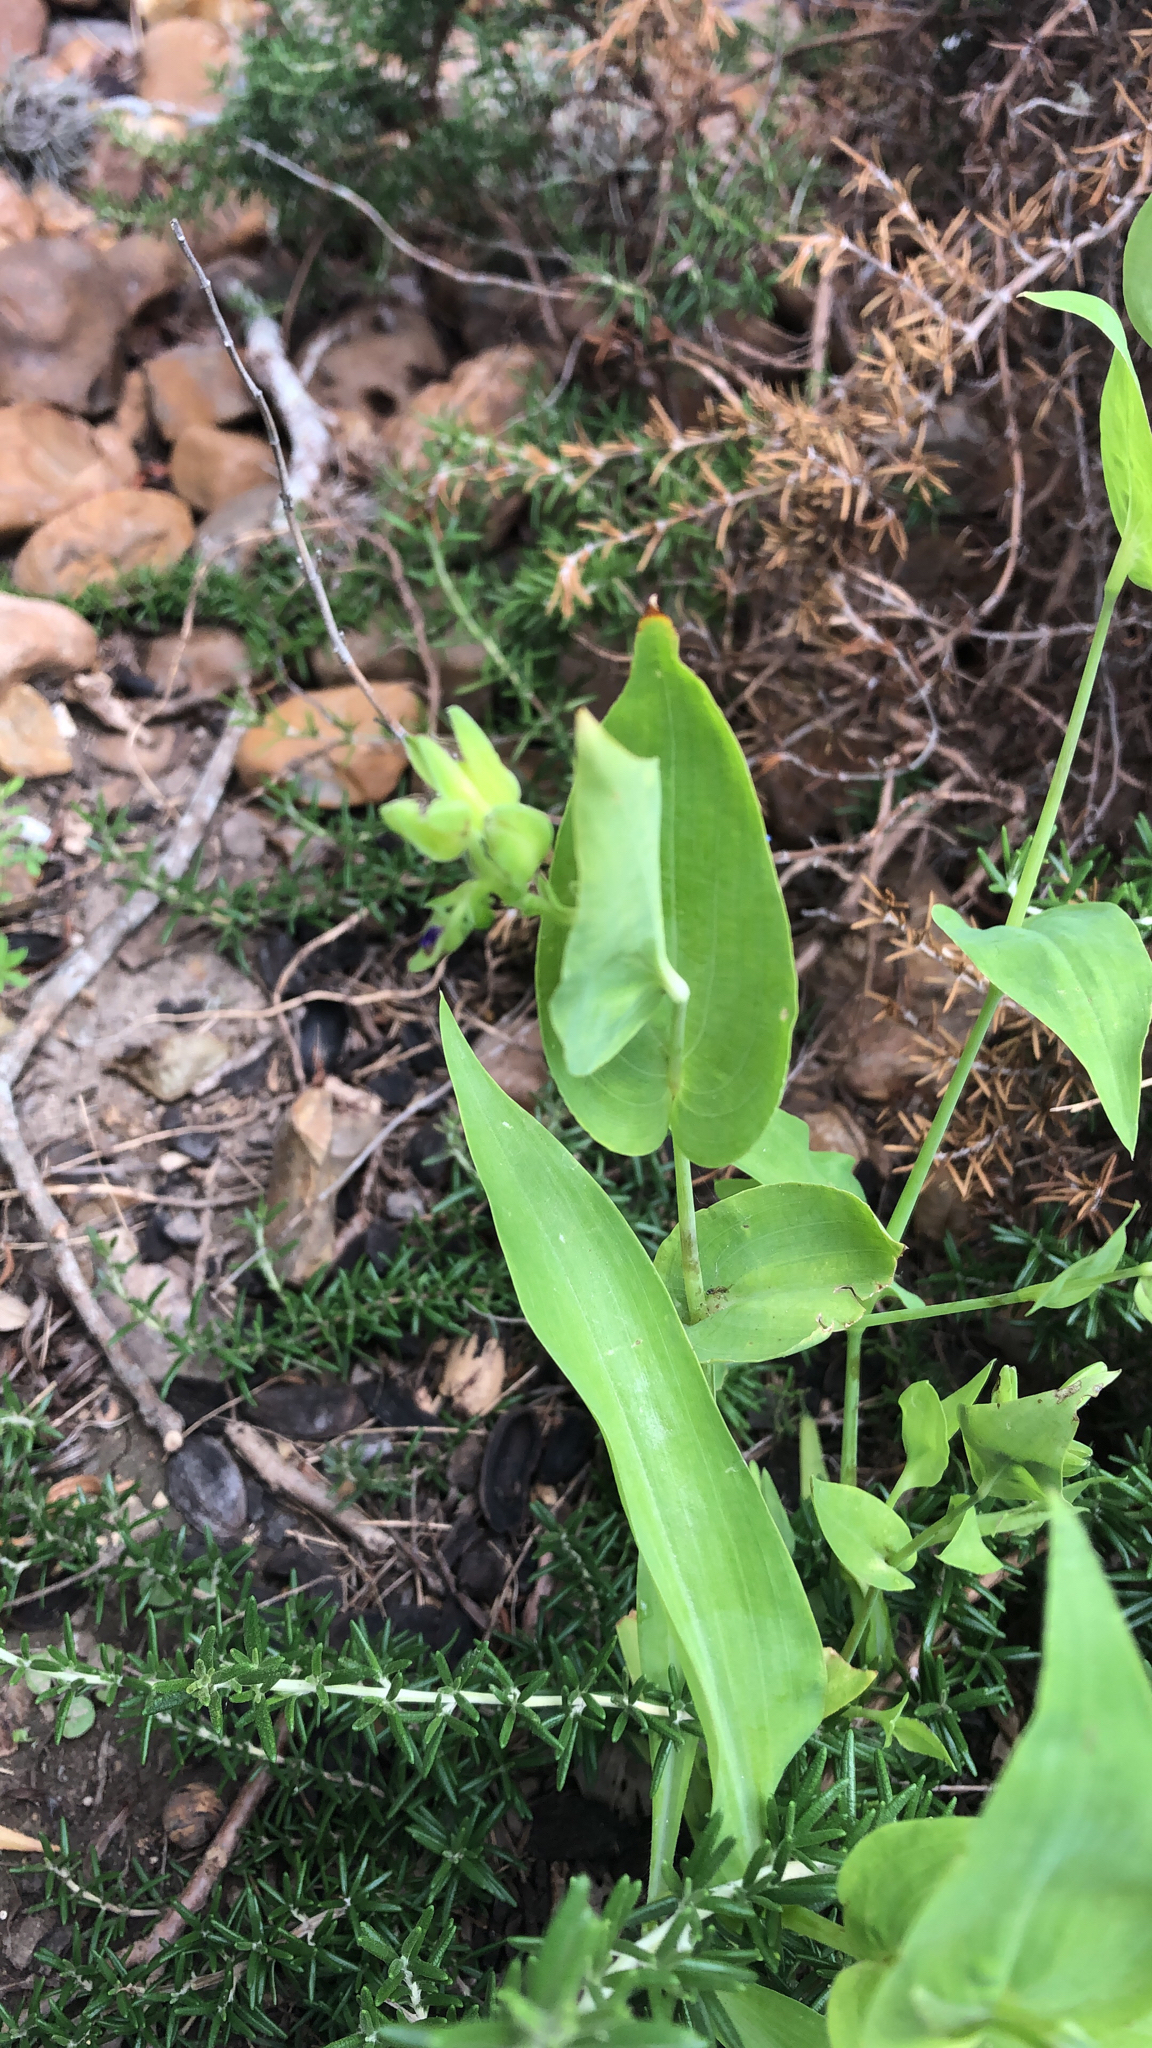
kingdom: Plantae
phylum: Tracheophyta
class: Liliopsida
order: Commelinales
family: Commelinaceae
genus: Tinantia
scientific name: Tinantia anomala
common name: False dayflower
